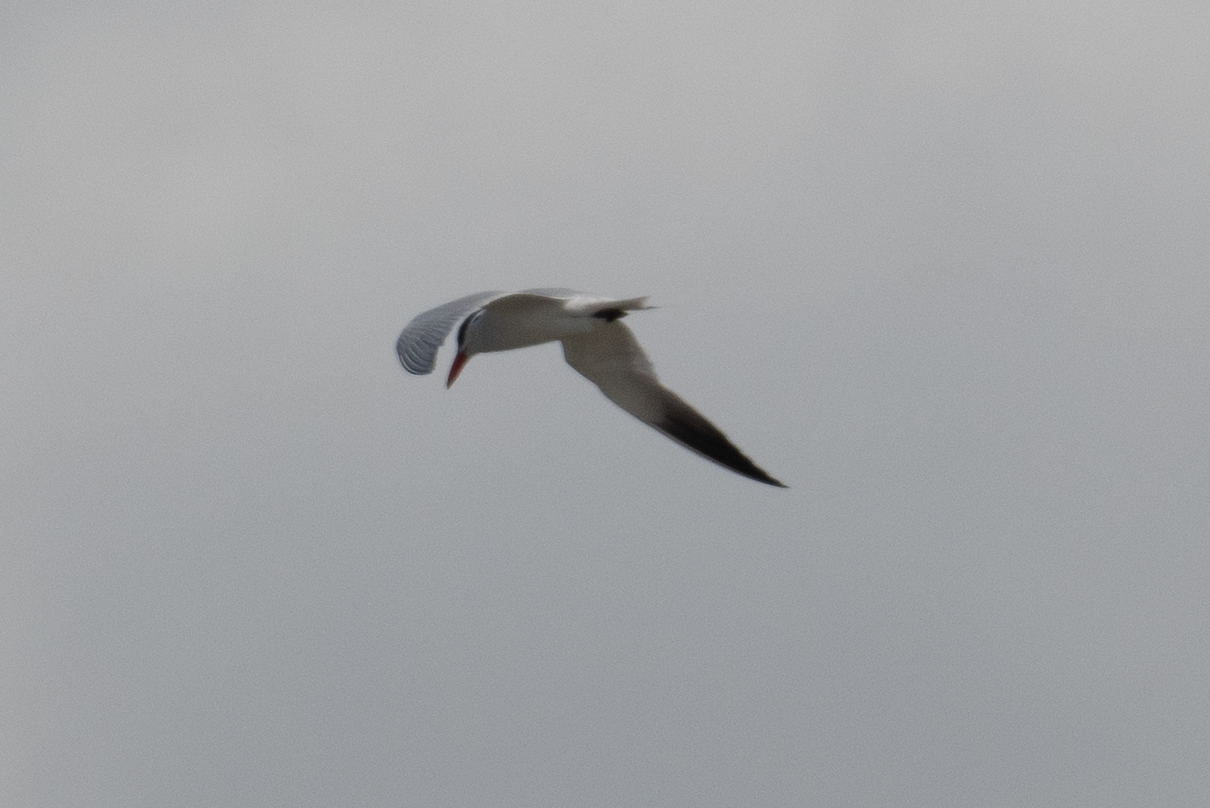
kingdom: Animalia
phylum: Chordata
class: Aves
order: Charadriiformes
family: Laridae
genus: Hydroprogne
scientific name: Hydroprogne caspia
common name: Caspian tern
